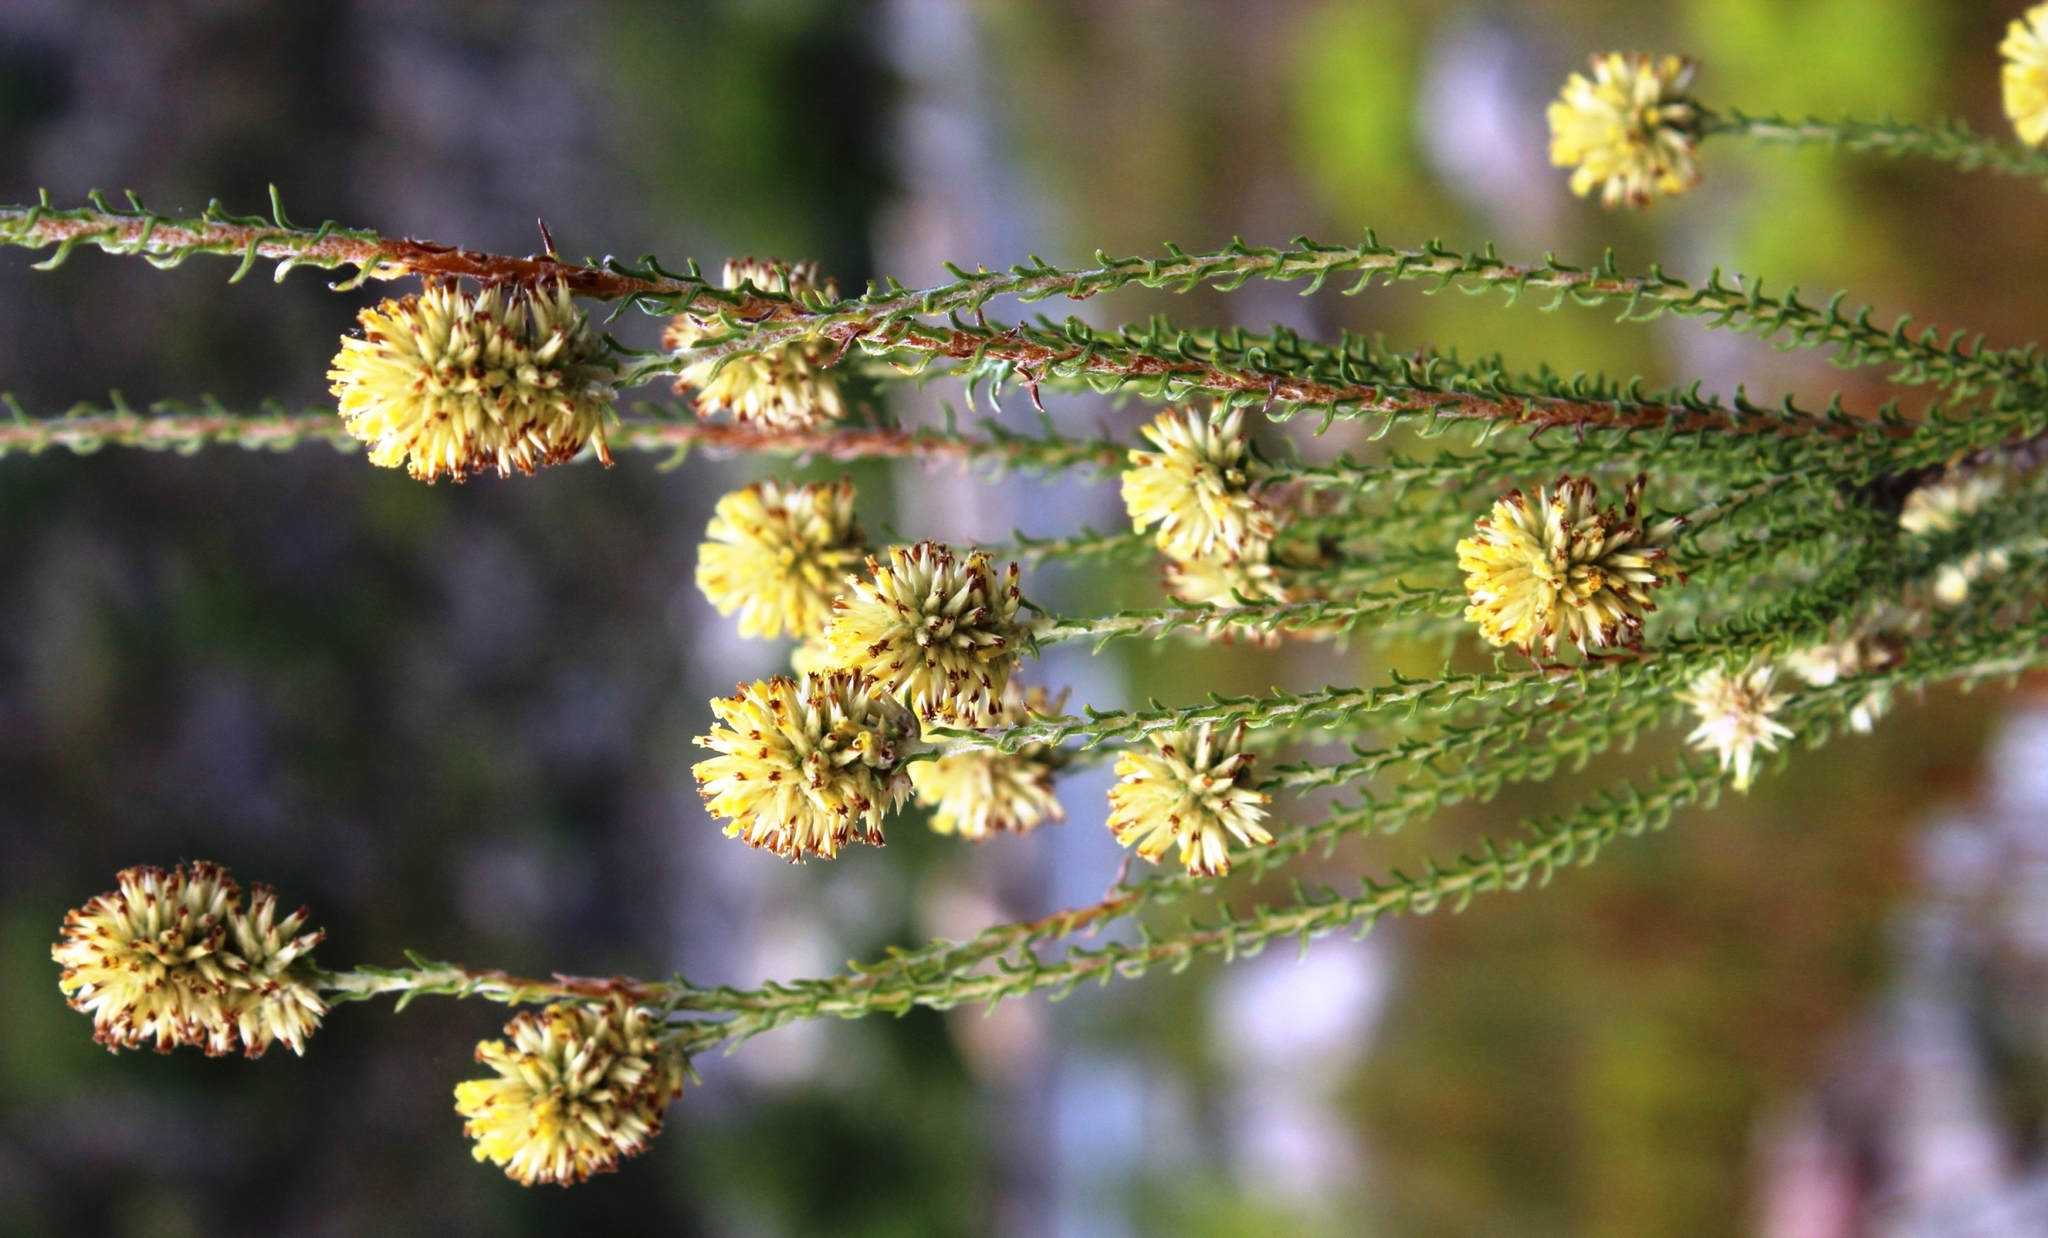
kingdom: Plantae
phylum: Tracheophyta
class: Magnoliopsida
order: Asterales
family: Asteraceae
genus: Seriphium
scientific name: Seriphium spirale
